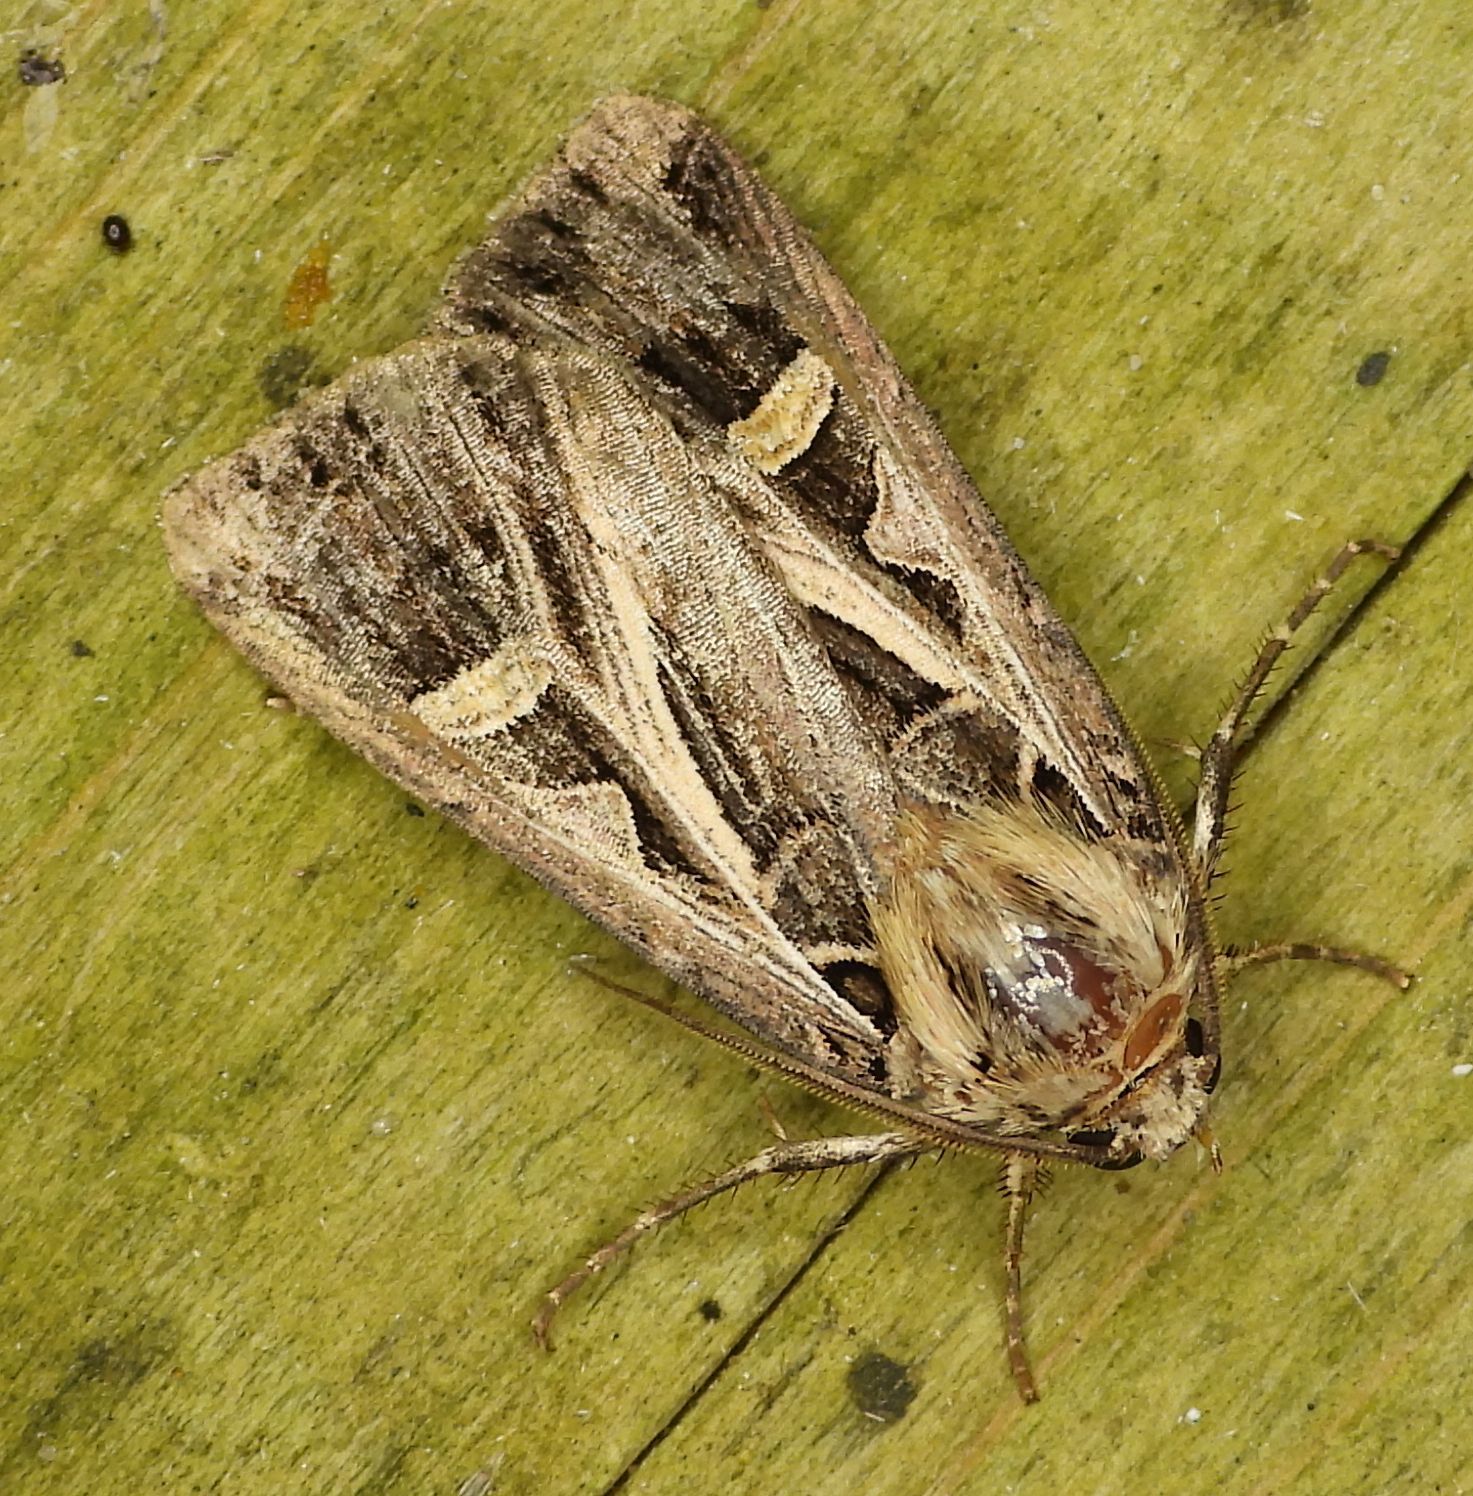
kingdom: Animalia
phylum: Arthropoda
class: Insecta
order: Lepidoptera
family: Noctuidae
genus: Feltia
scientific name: Feltia jaculifera
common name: Dingy cutworm moth
